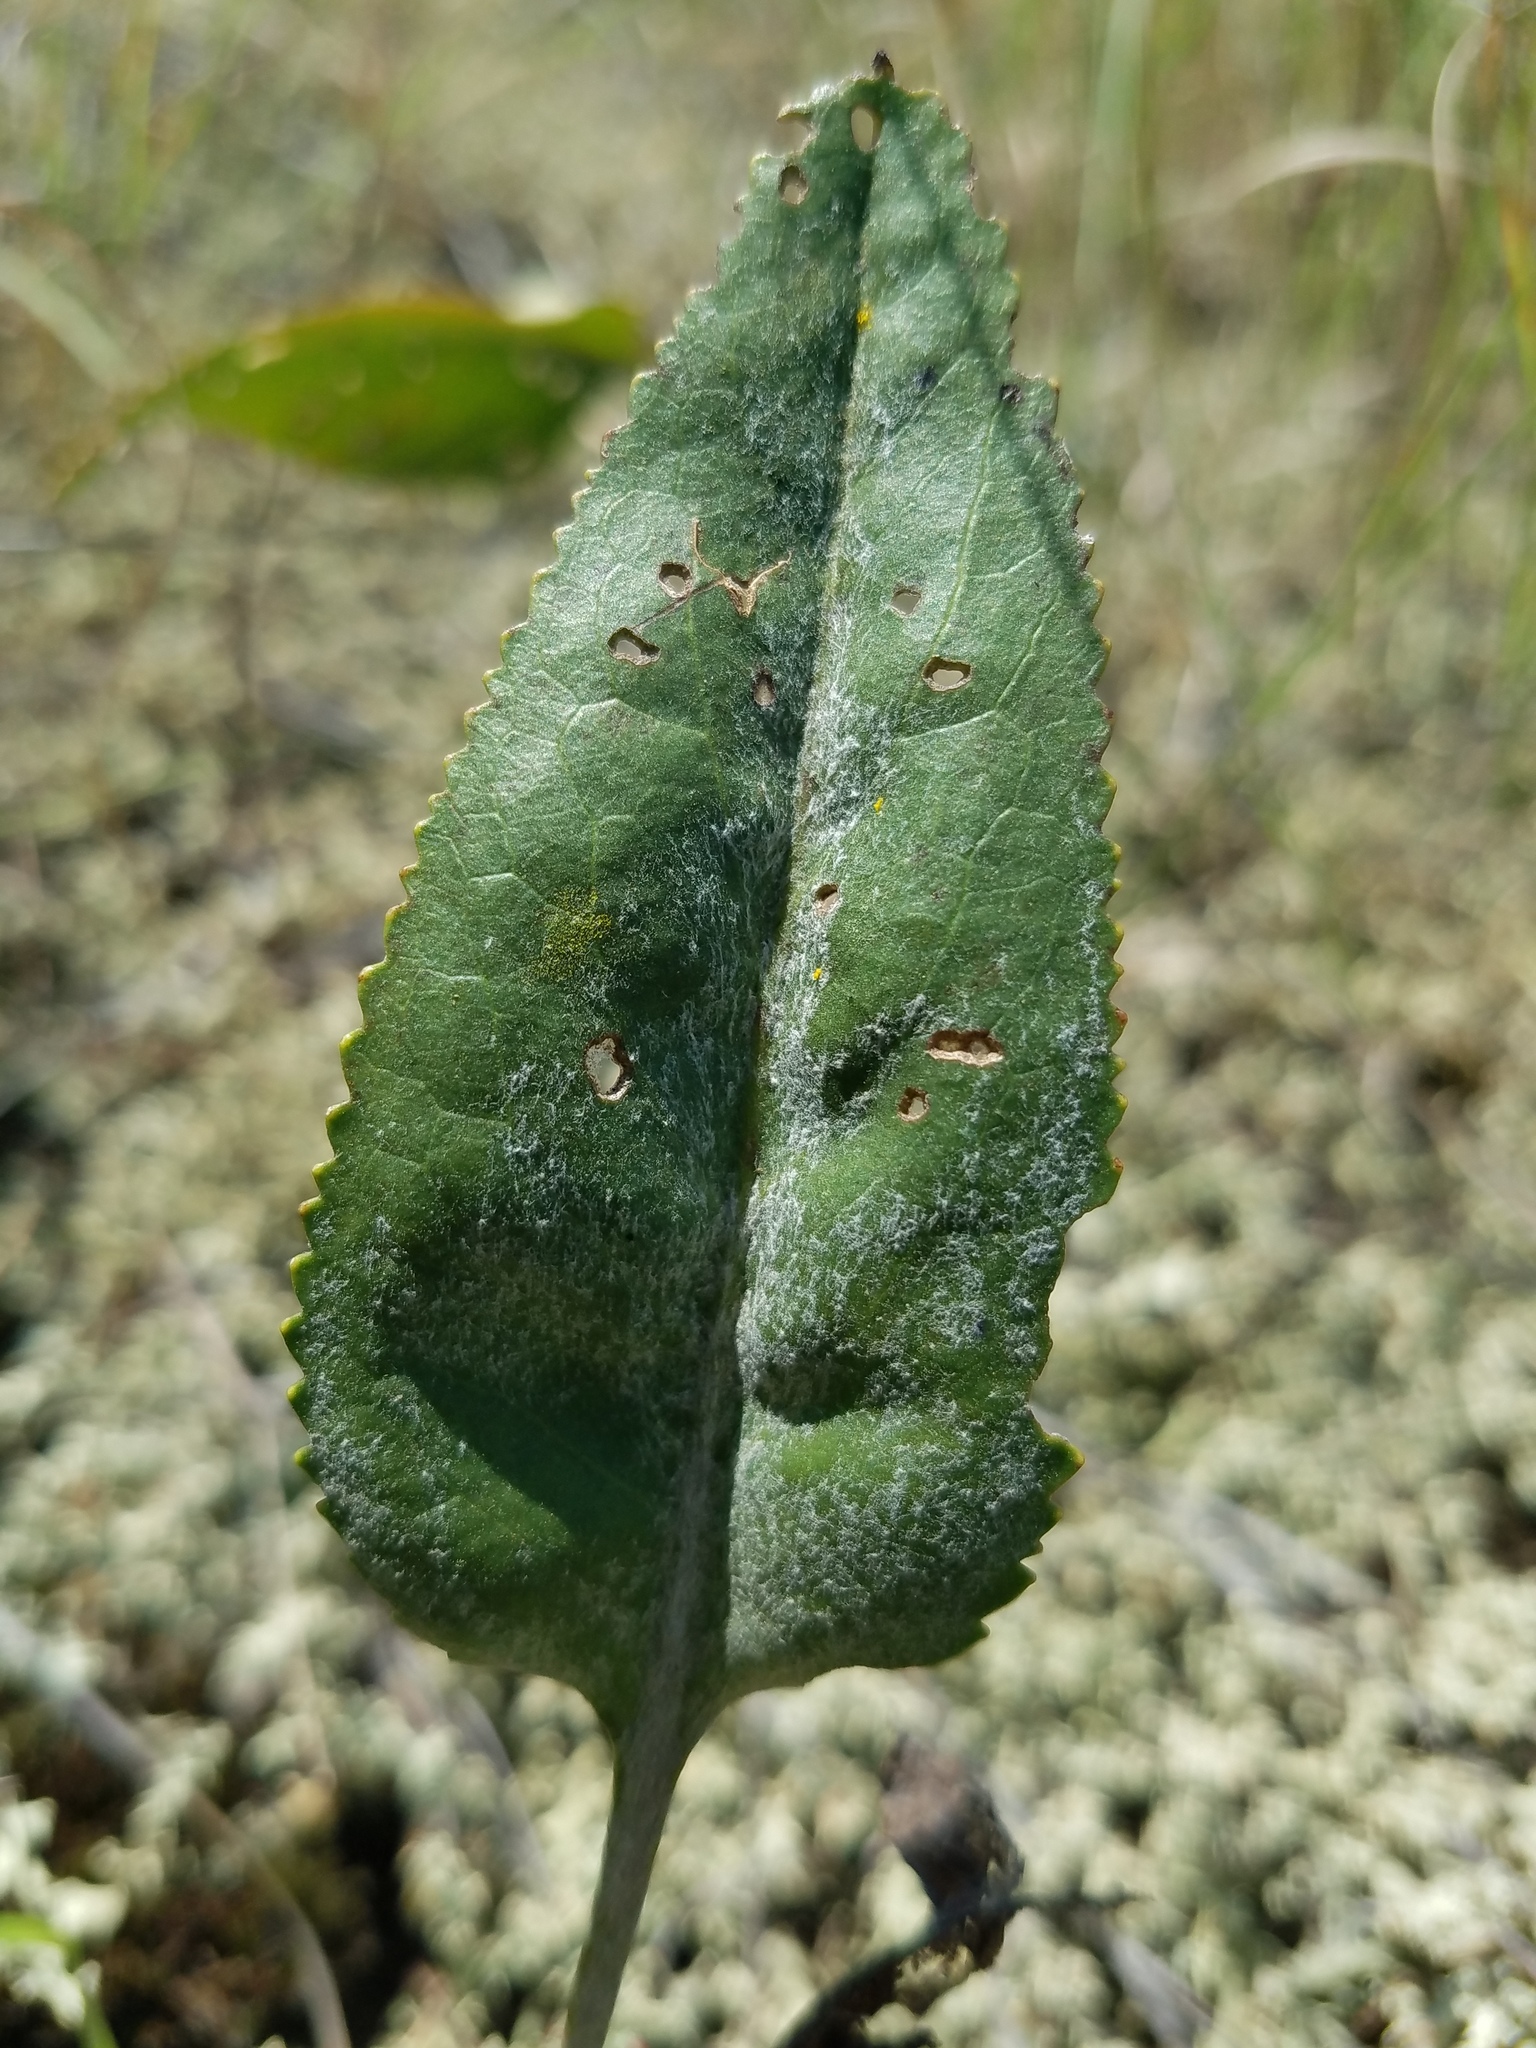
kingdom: Plantae
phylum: Tracheophyta
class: Magnoliopsida
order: Asterales
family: Asteraceae
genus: Packera
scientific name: Packera dubia
